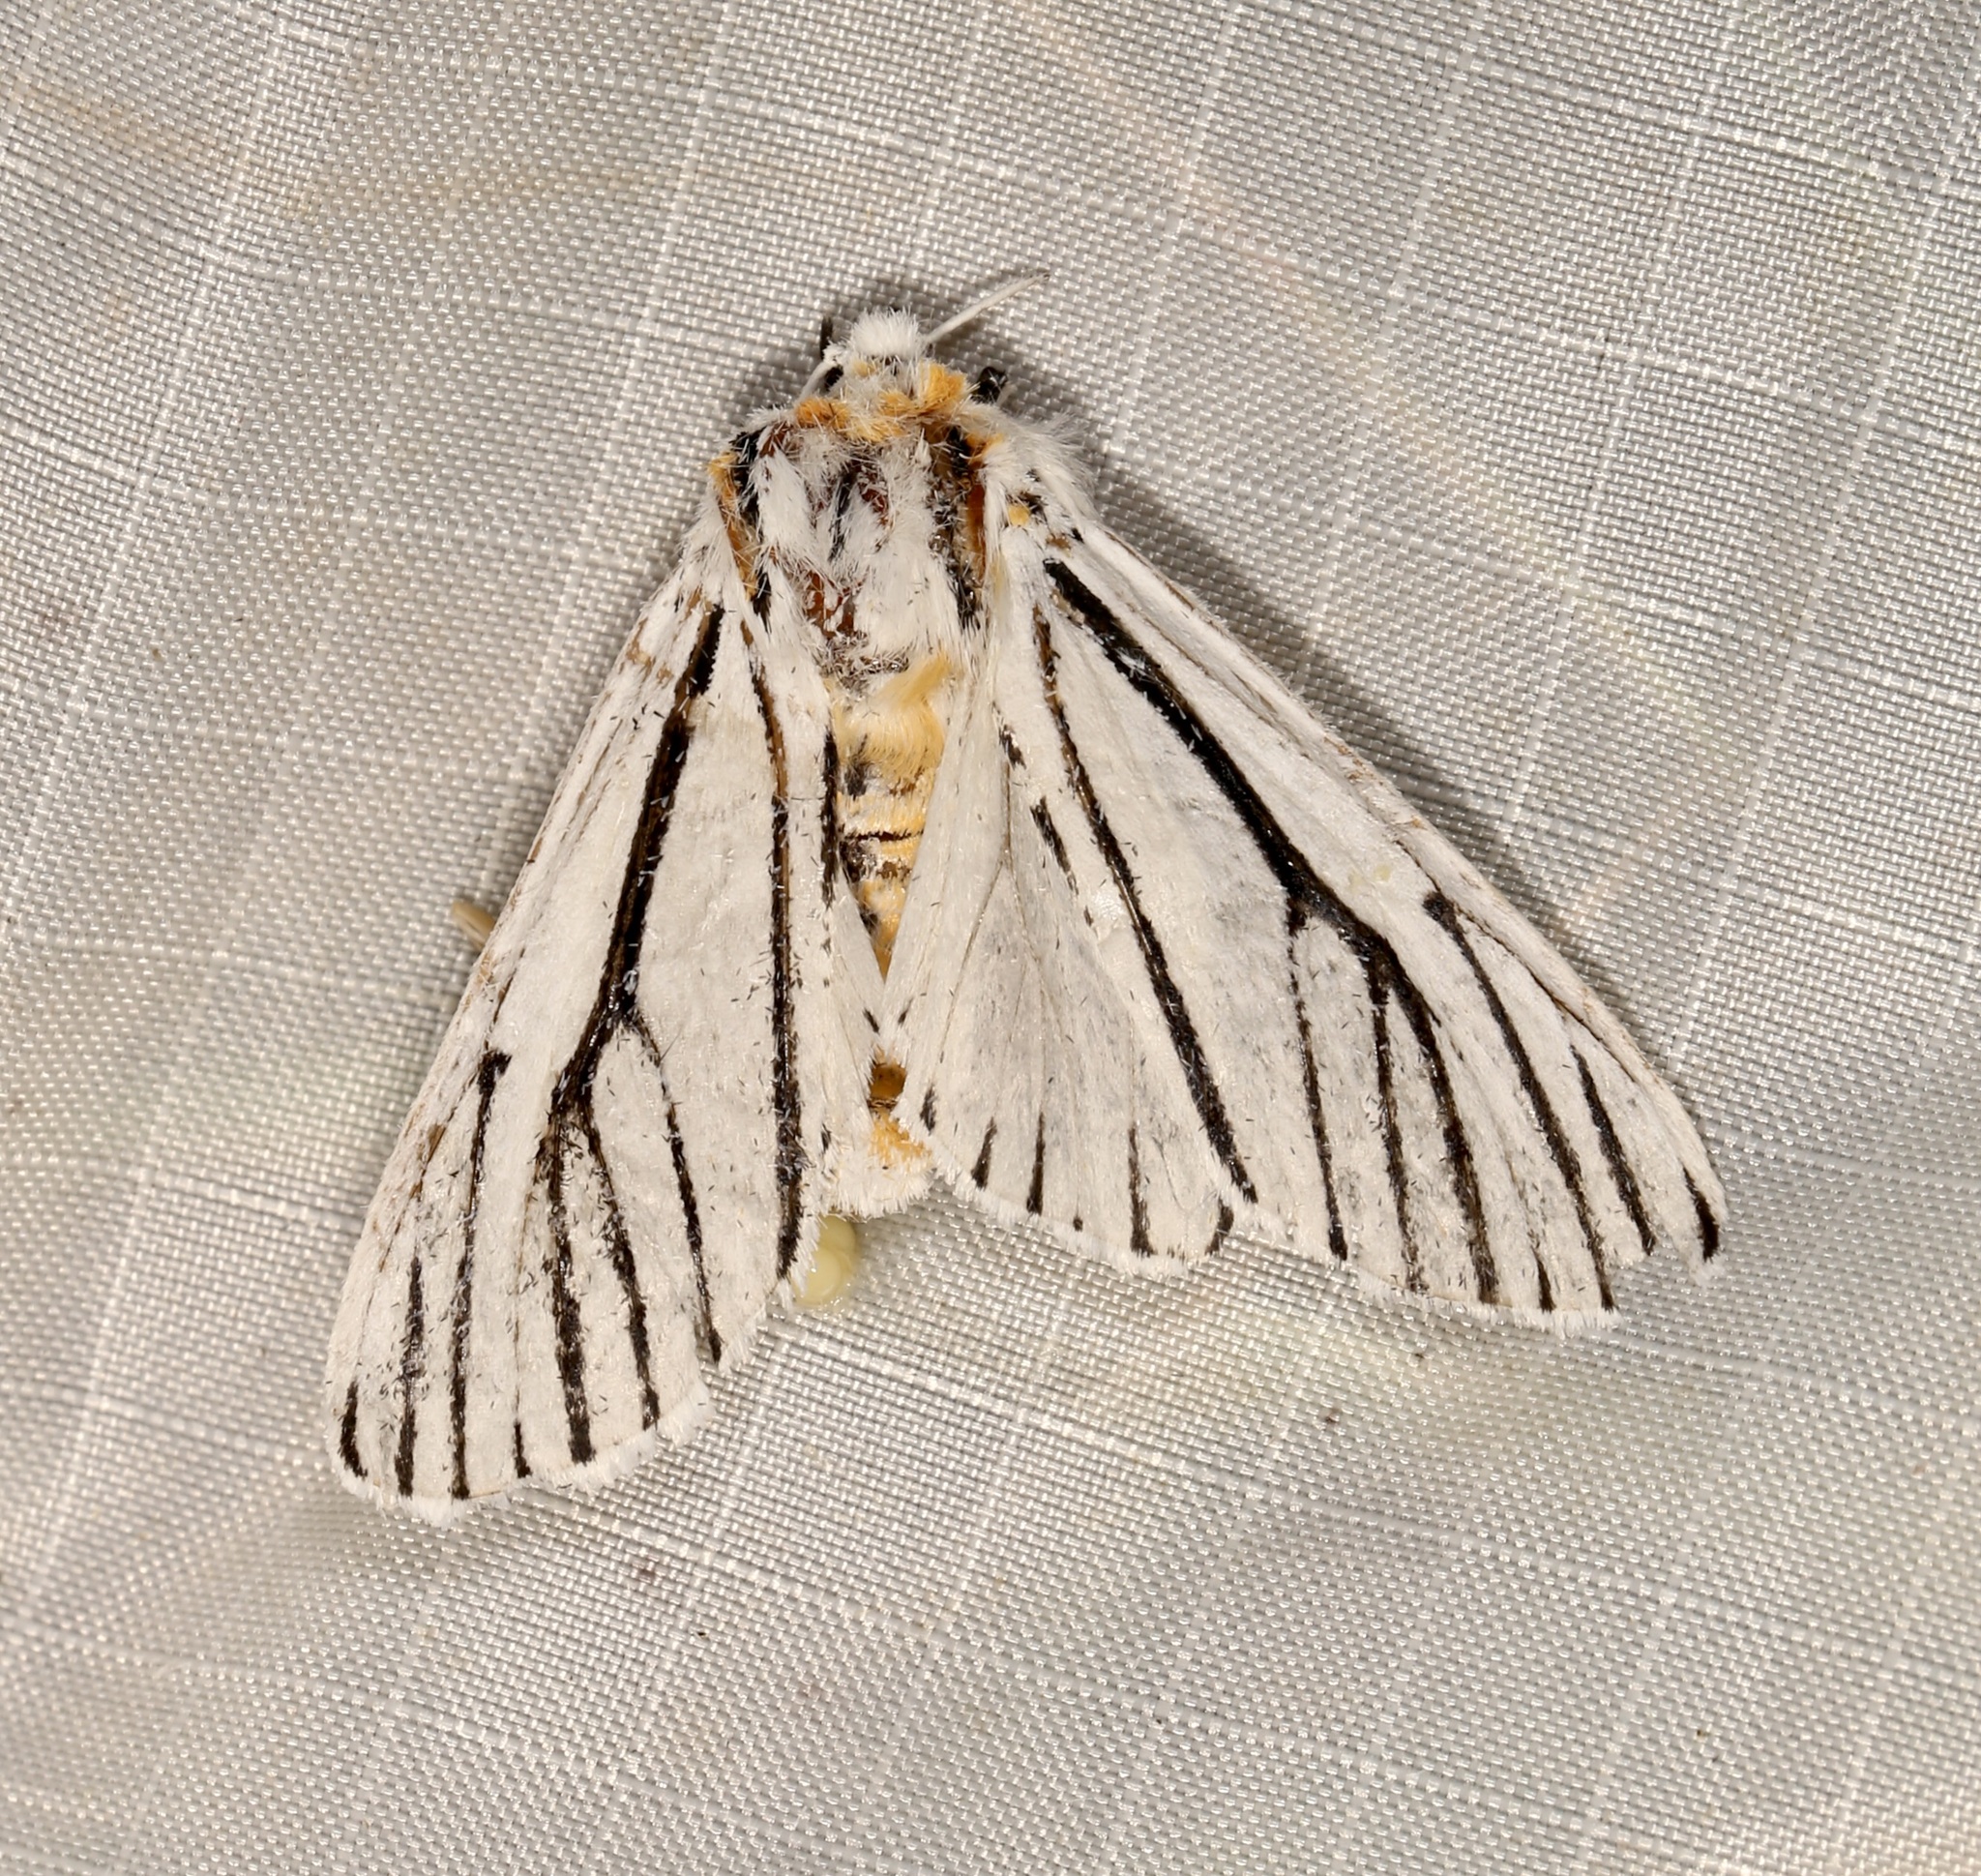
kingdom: Animalia
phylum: Arthropoda
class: Insecta
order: Lepidoptera
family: Erebidae
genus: Ectypia
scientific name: Ectypia clio
